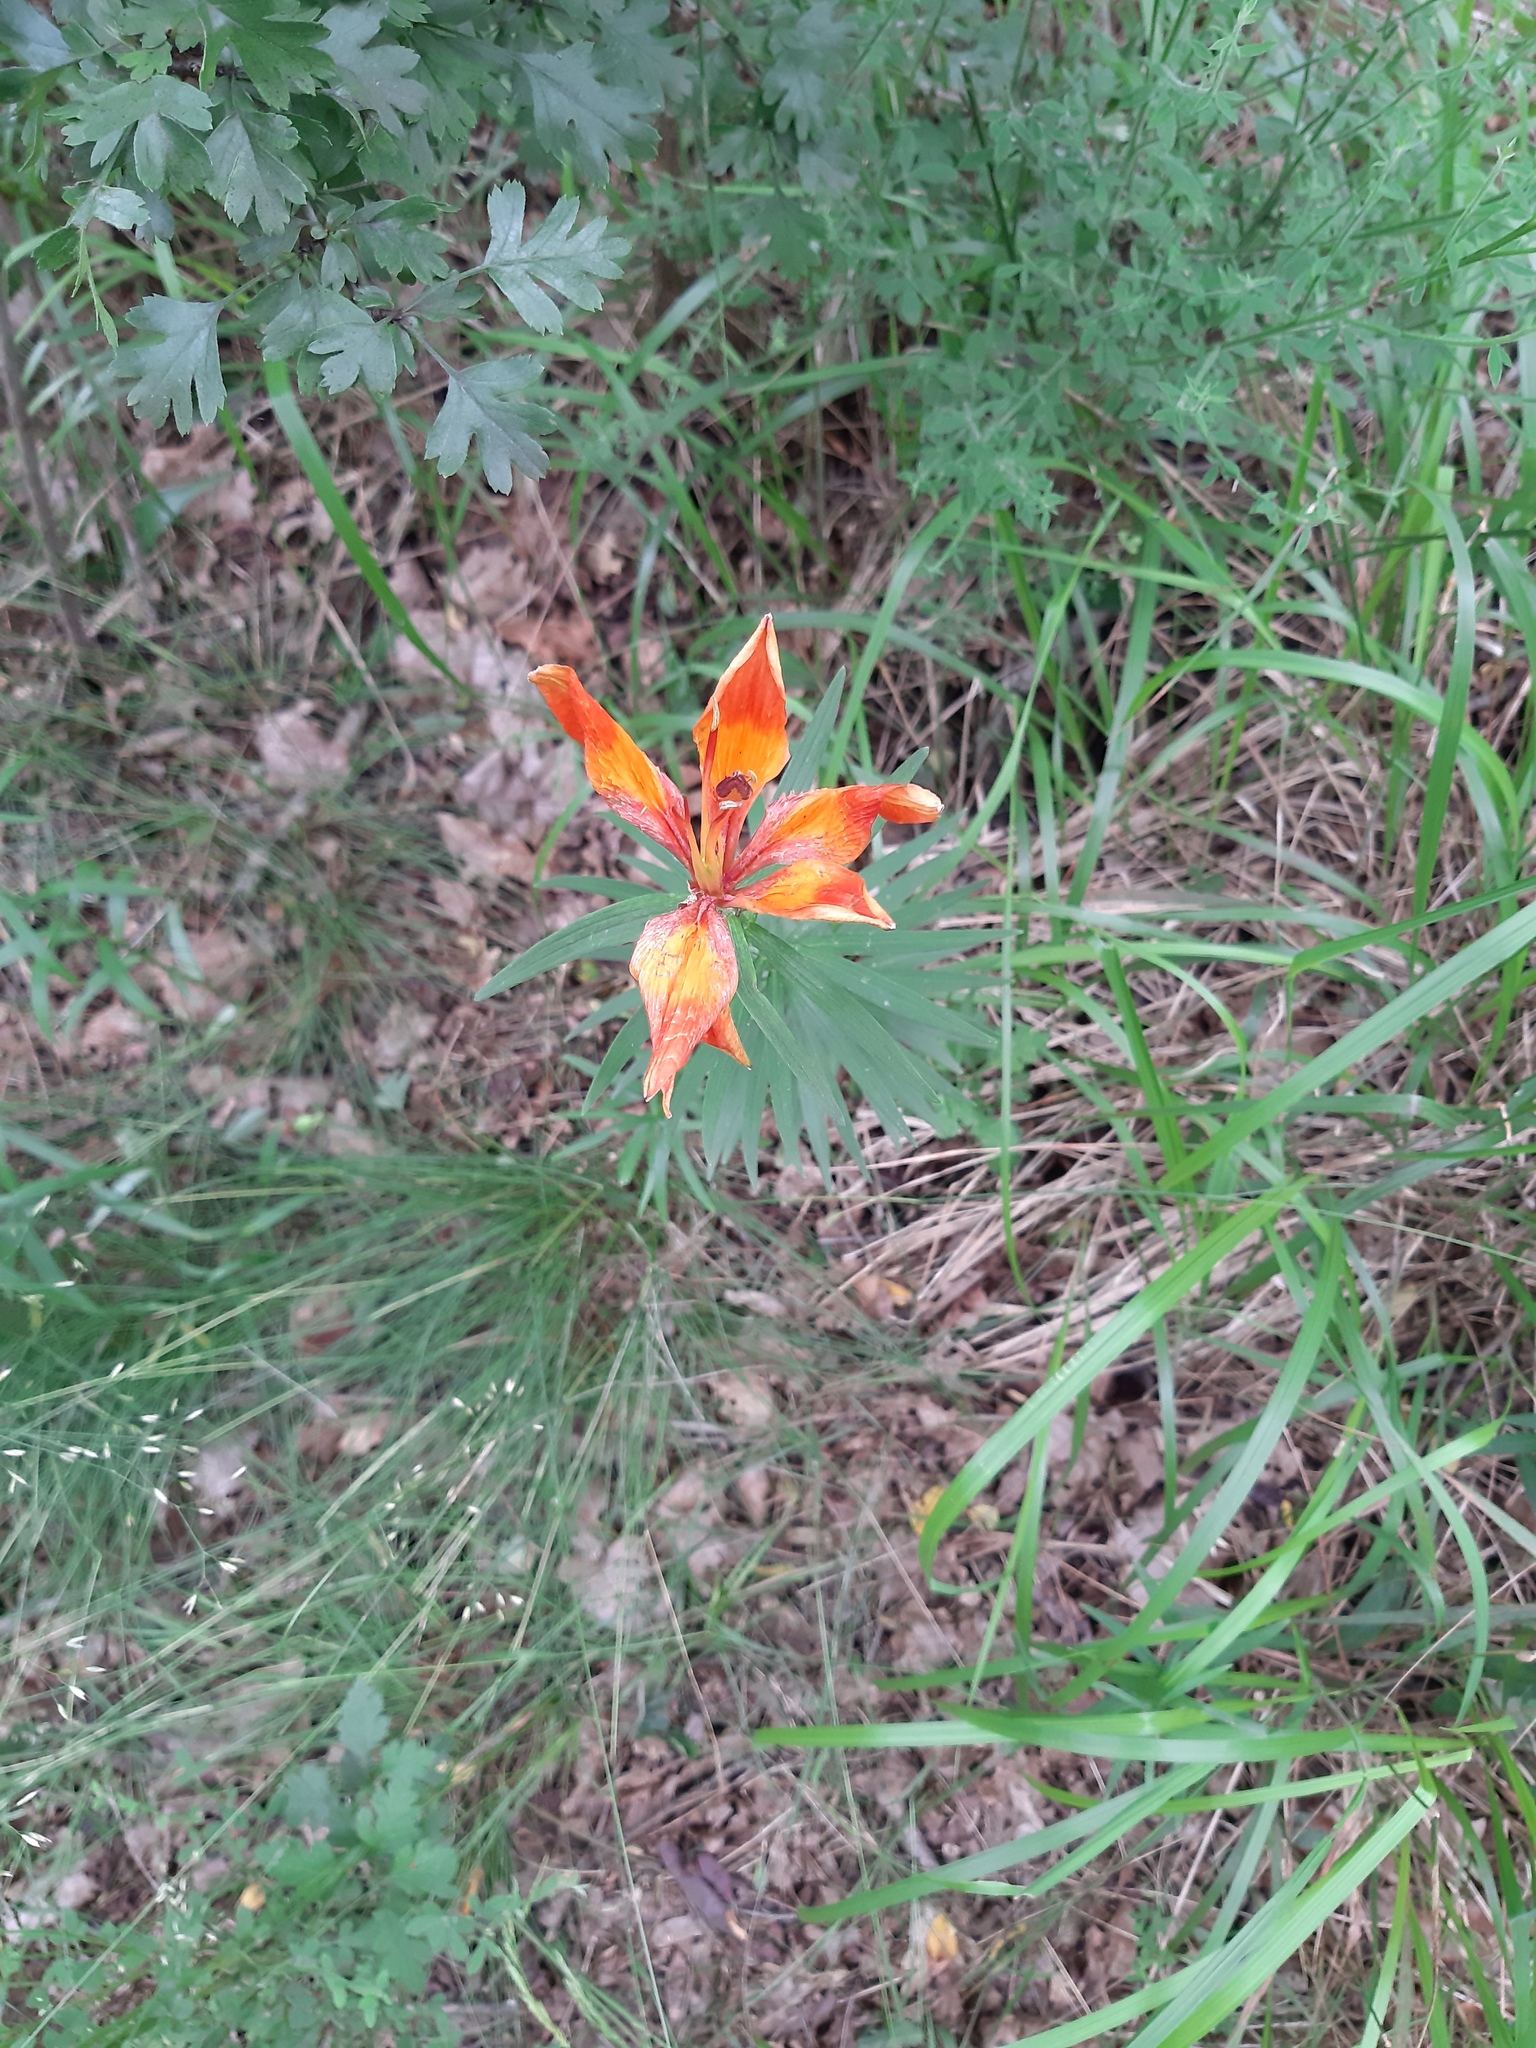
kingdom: Plantae
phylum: Tracheophyta
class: Liliopsida
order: Liliales
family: Liliaceae
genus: Lilium
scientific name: Lilium bulbiferum
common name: Orange lily
